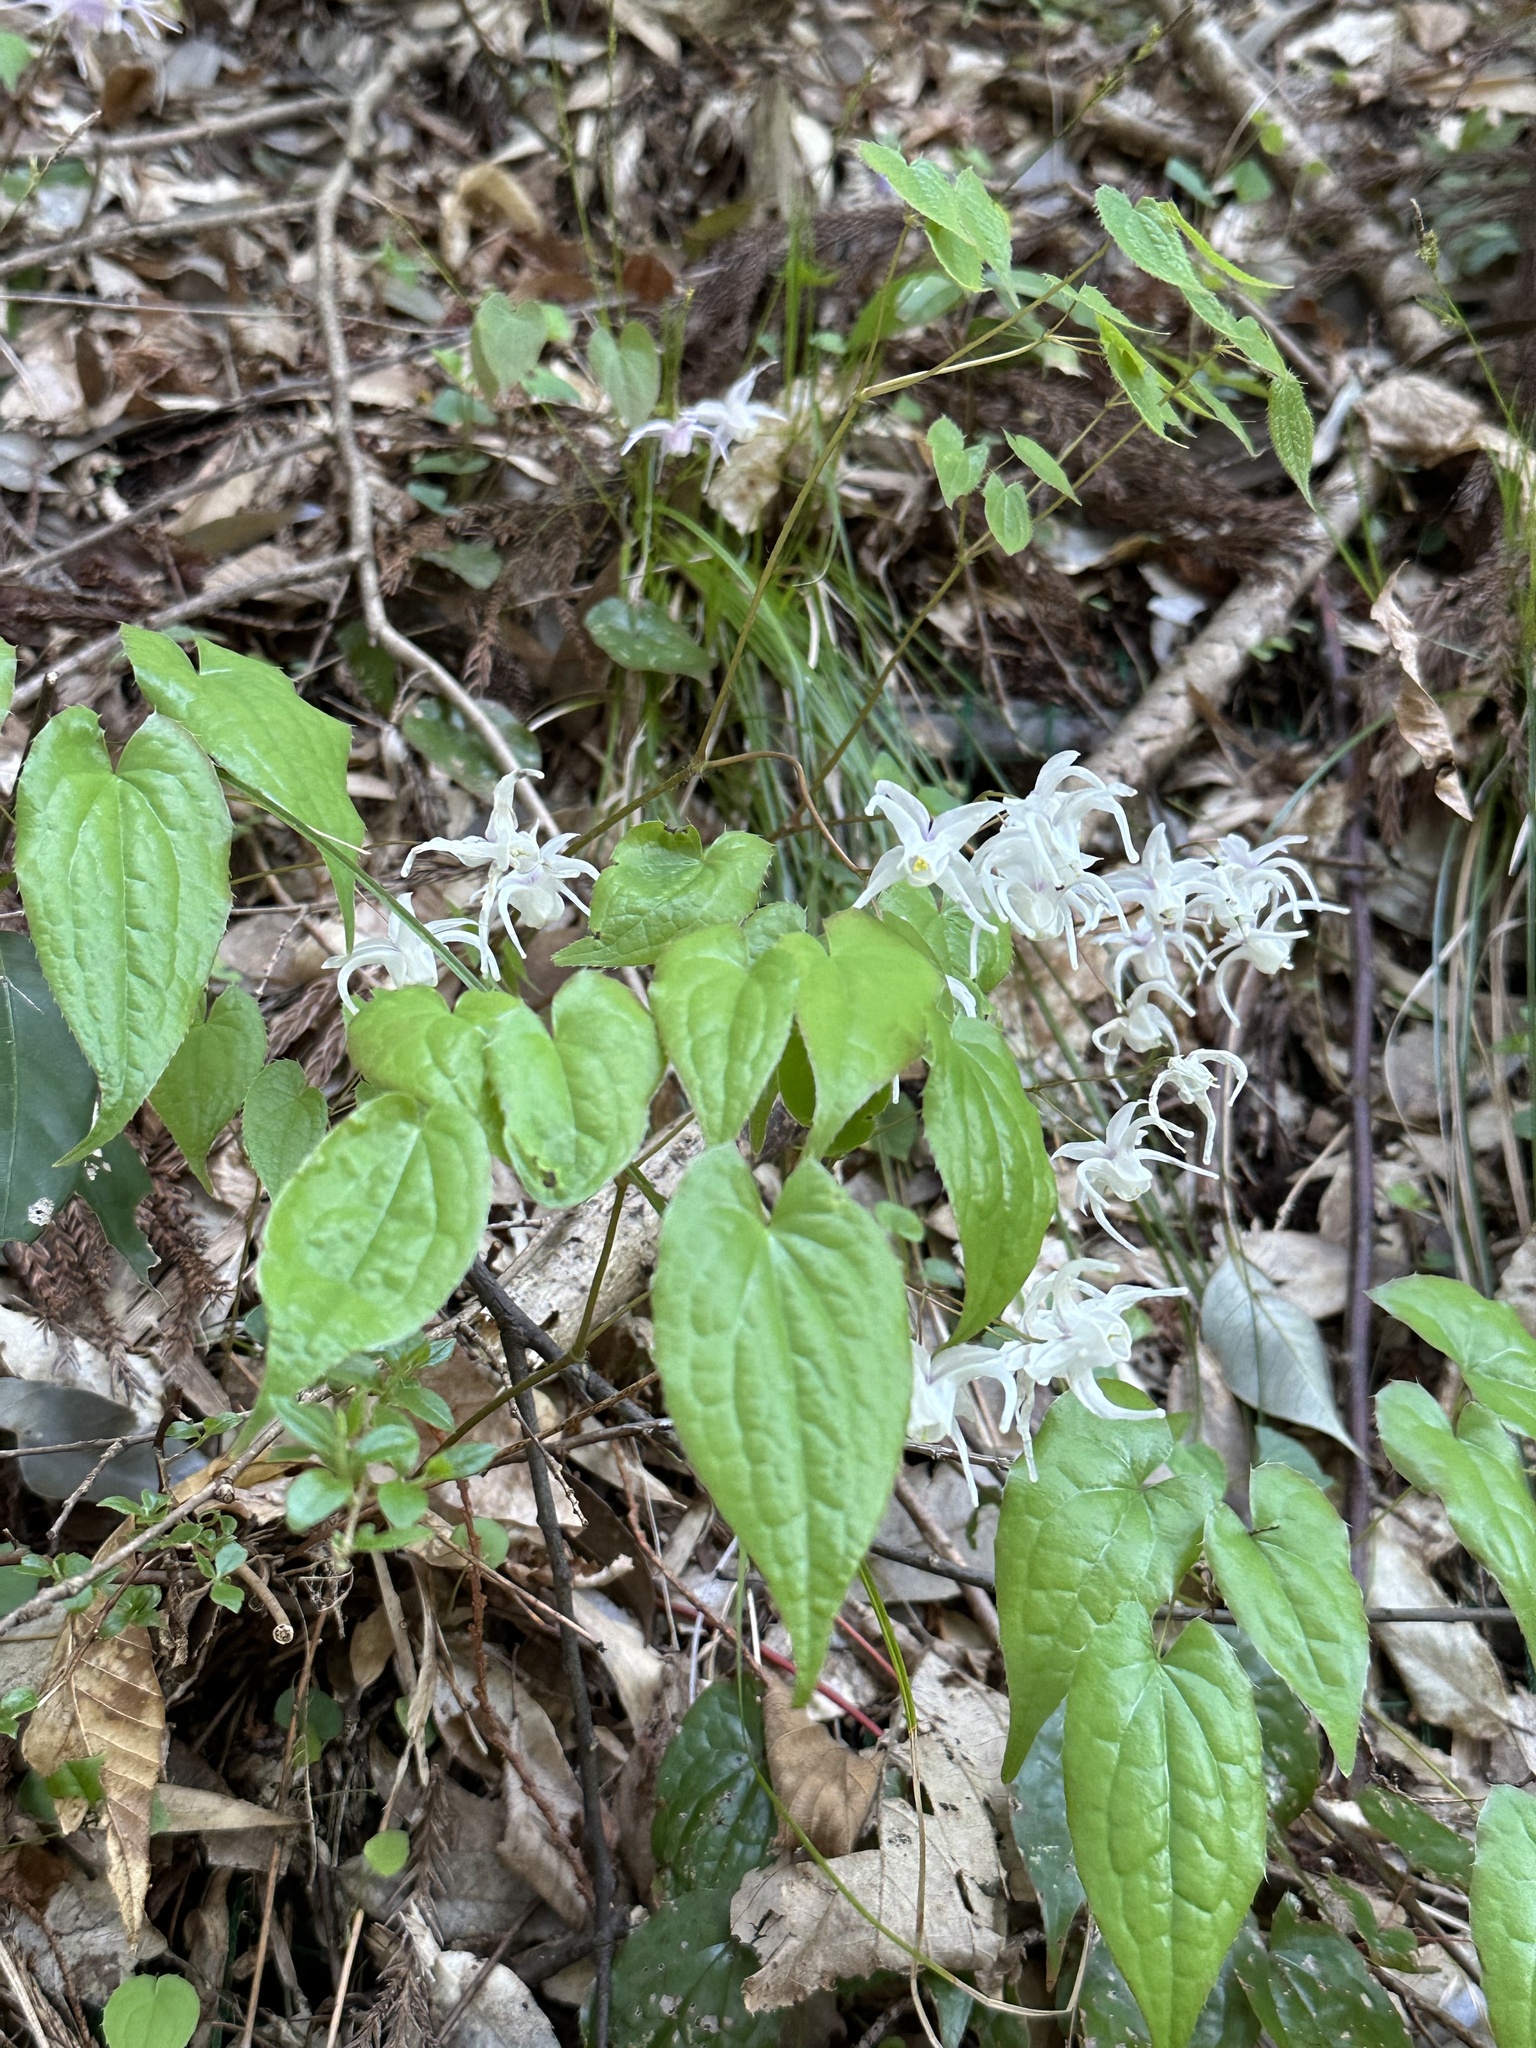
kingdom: Plantae
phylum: Tracheophyta
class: Magnoliopsida
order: Ranunculales
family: Berberidaceae
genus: Epimedium
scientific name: Epimedium sempervirens
